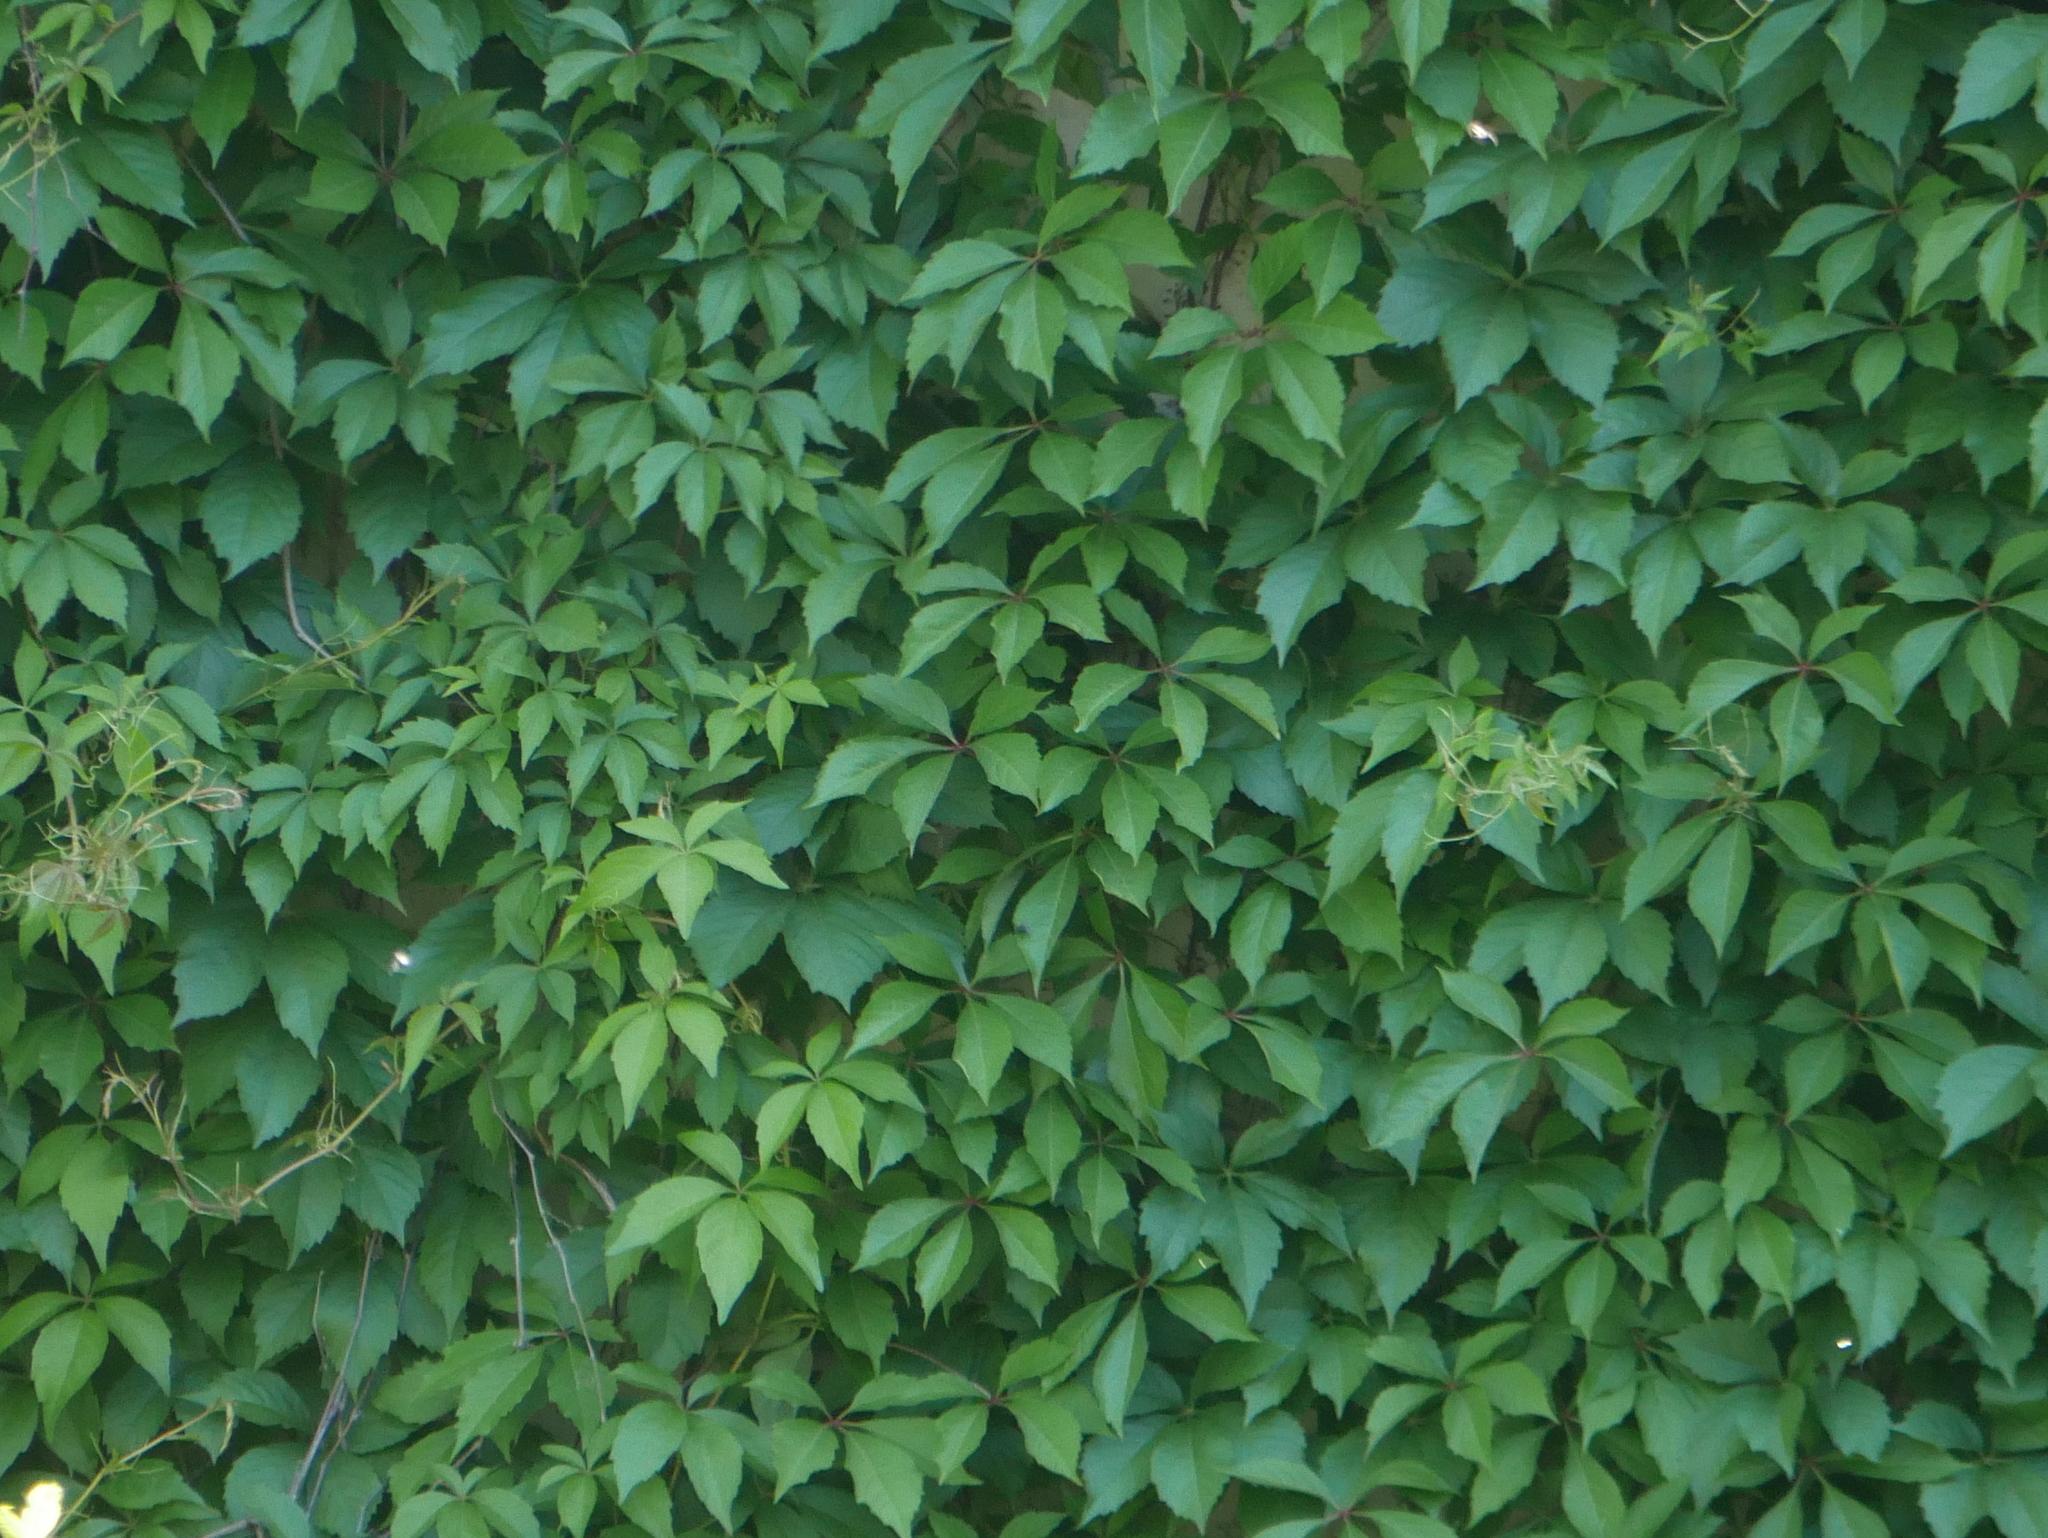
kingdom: Plantae
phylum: Tracheophyta
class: Magnoliopsida
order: Vitales
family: Vitaceae
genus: Parthenocissus
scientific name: Parthenocissus quinquefolia
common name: Virginia-creeper
